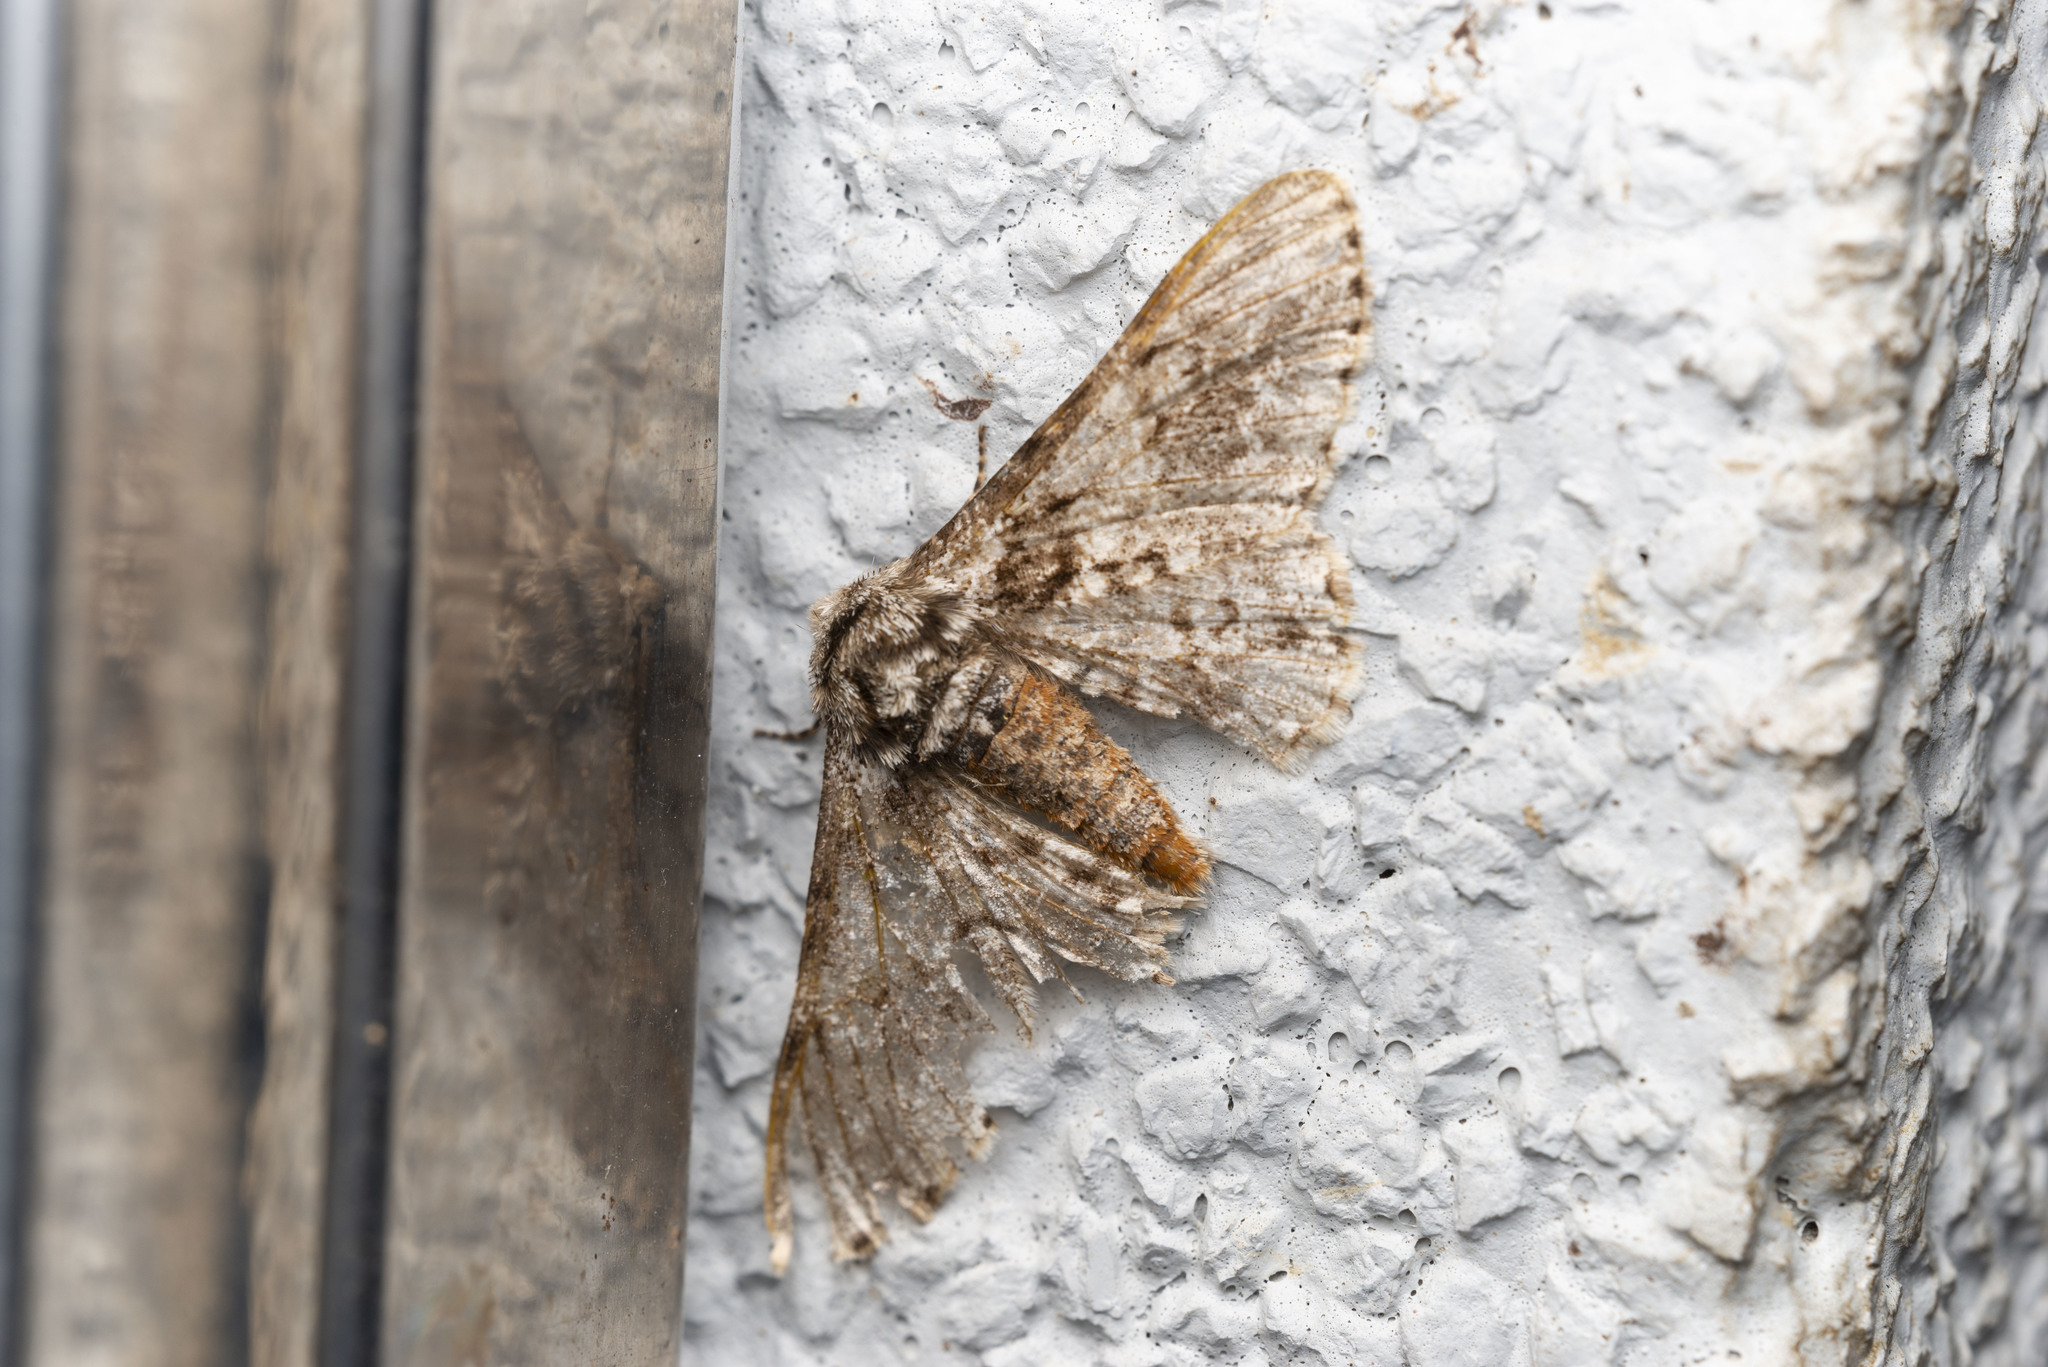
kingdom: Animalia
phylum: Arthropoda
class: Insecta
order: Lepidoptera
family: Geometridae
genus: Biston
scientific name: Biston marginata
